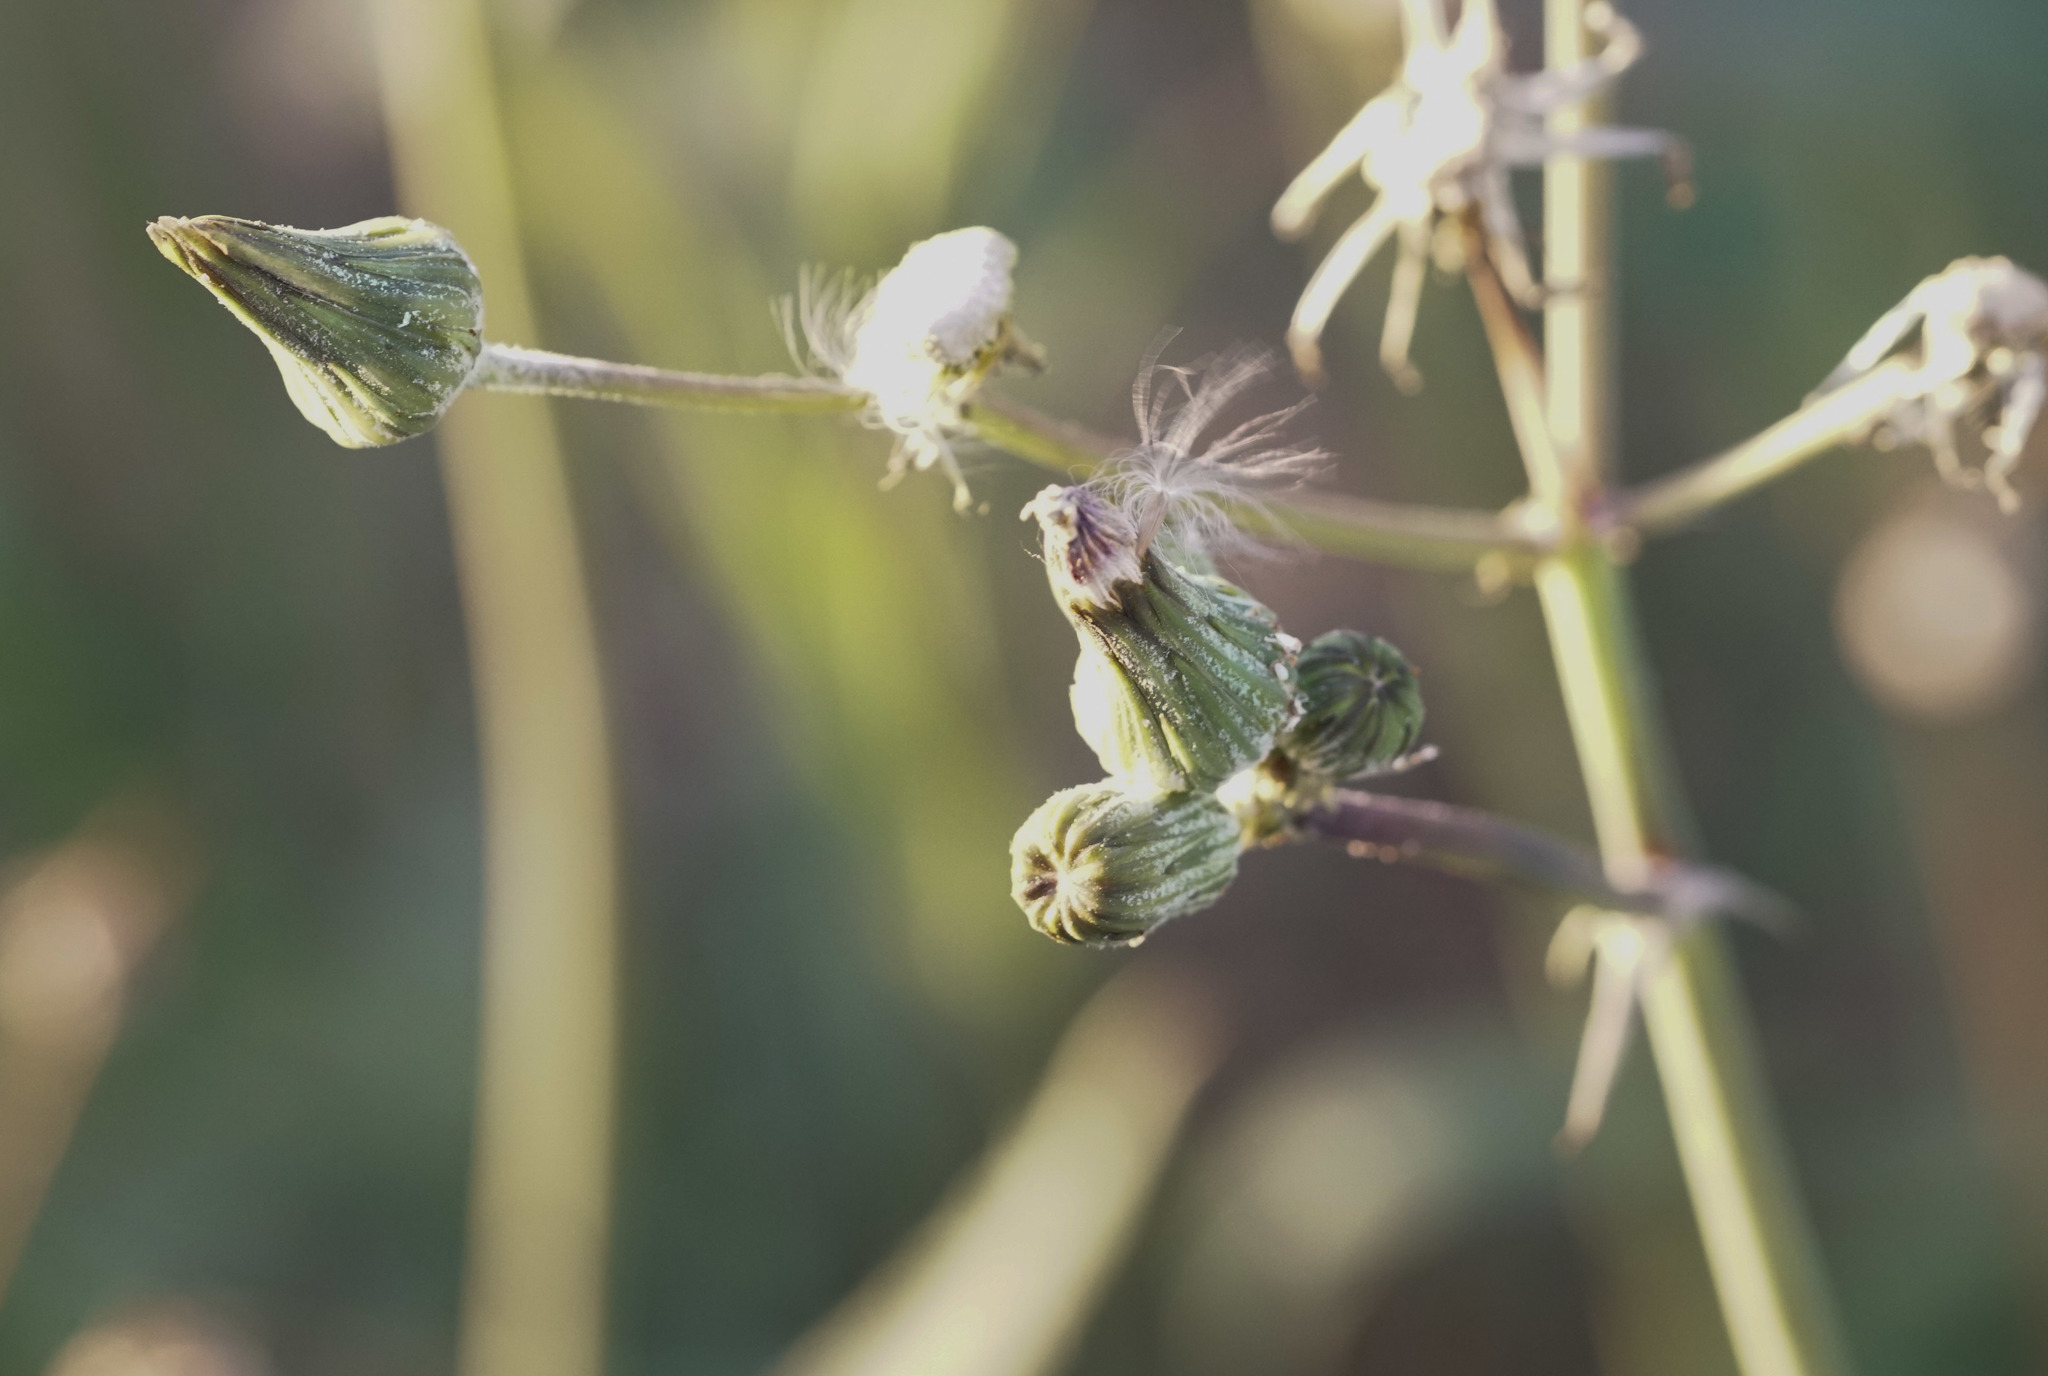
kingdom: Plantae
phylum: Tracheophyta
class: Magnoliopsida
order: Asterales
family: Asteraceae
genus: Sonchus
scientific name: Sonchus oleraceus
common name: Common sowthistle
